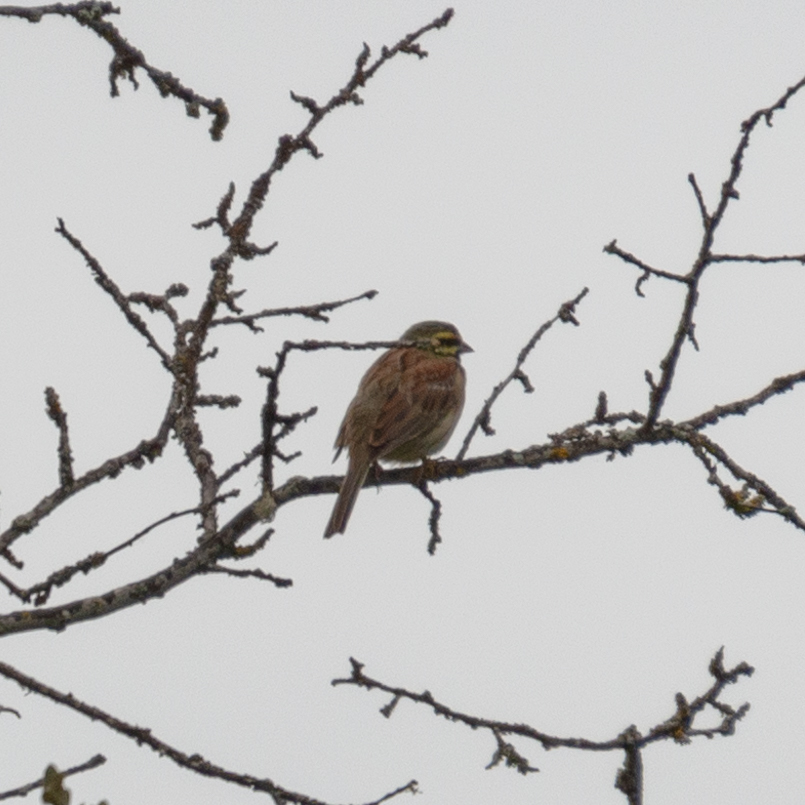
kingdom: Animalia
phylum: Chordata
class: Aves
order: Passeriformes
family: Emberizidae
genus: Emberiza
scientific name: Emberiza cirlus
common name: Cirl bunting
